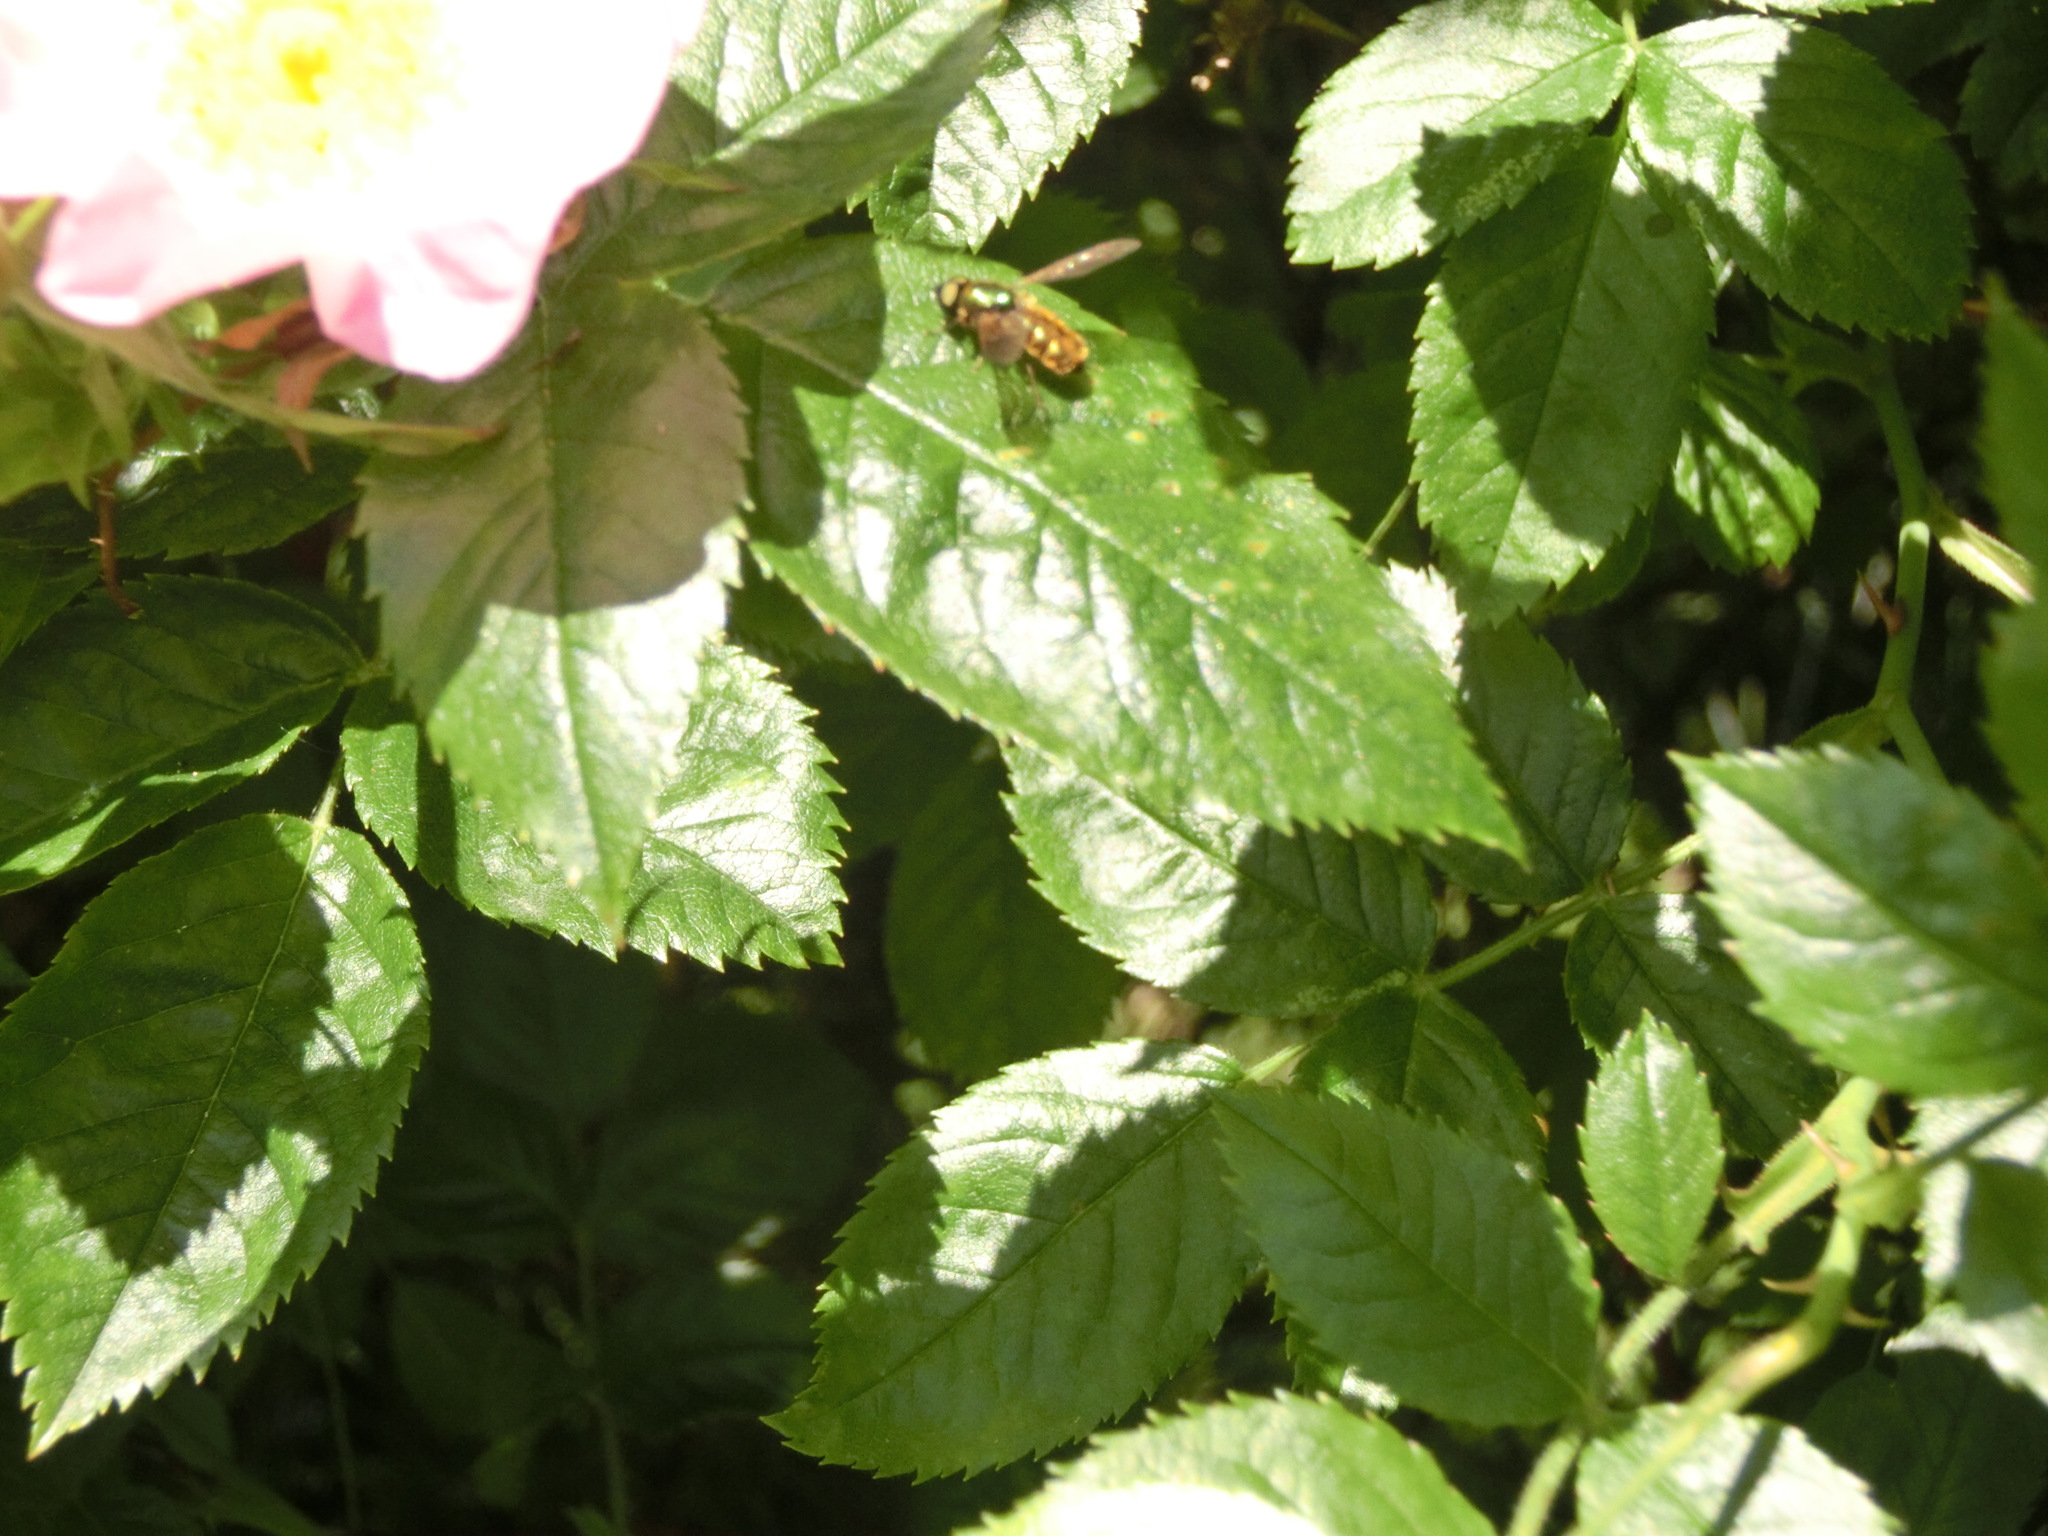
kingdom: Animalia
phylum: Arthropoda
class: Insecta
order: Diptera
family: Stratiomyidae
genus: Chloromyia
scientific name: Chloromyia formosa
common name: Soldier fly
